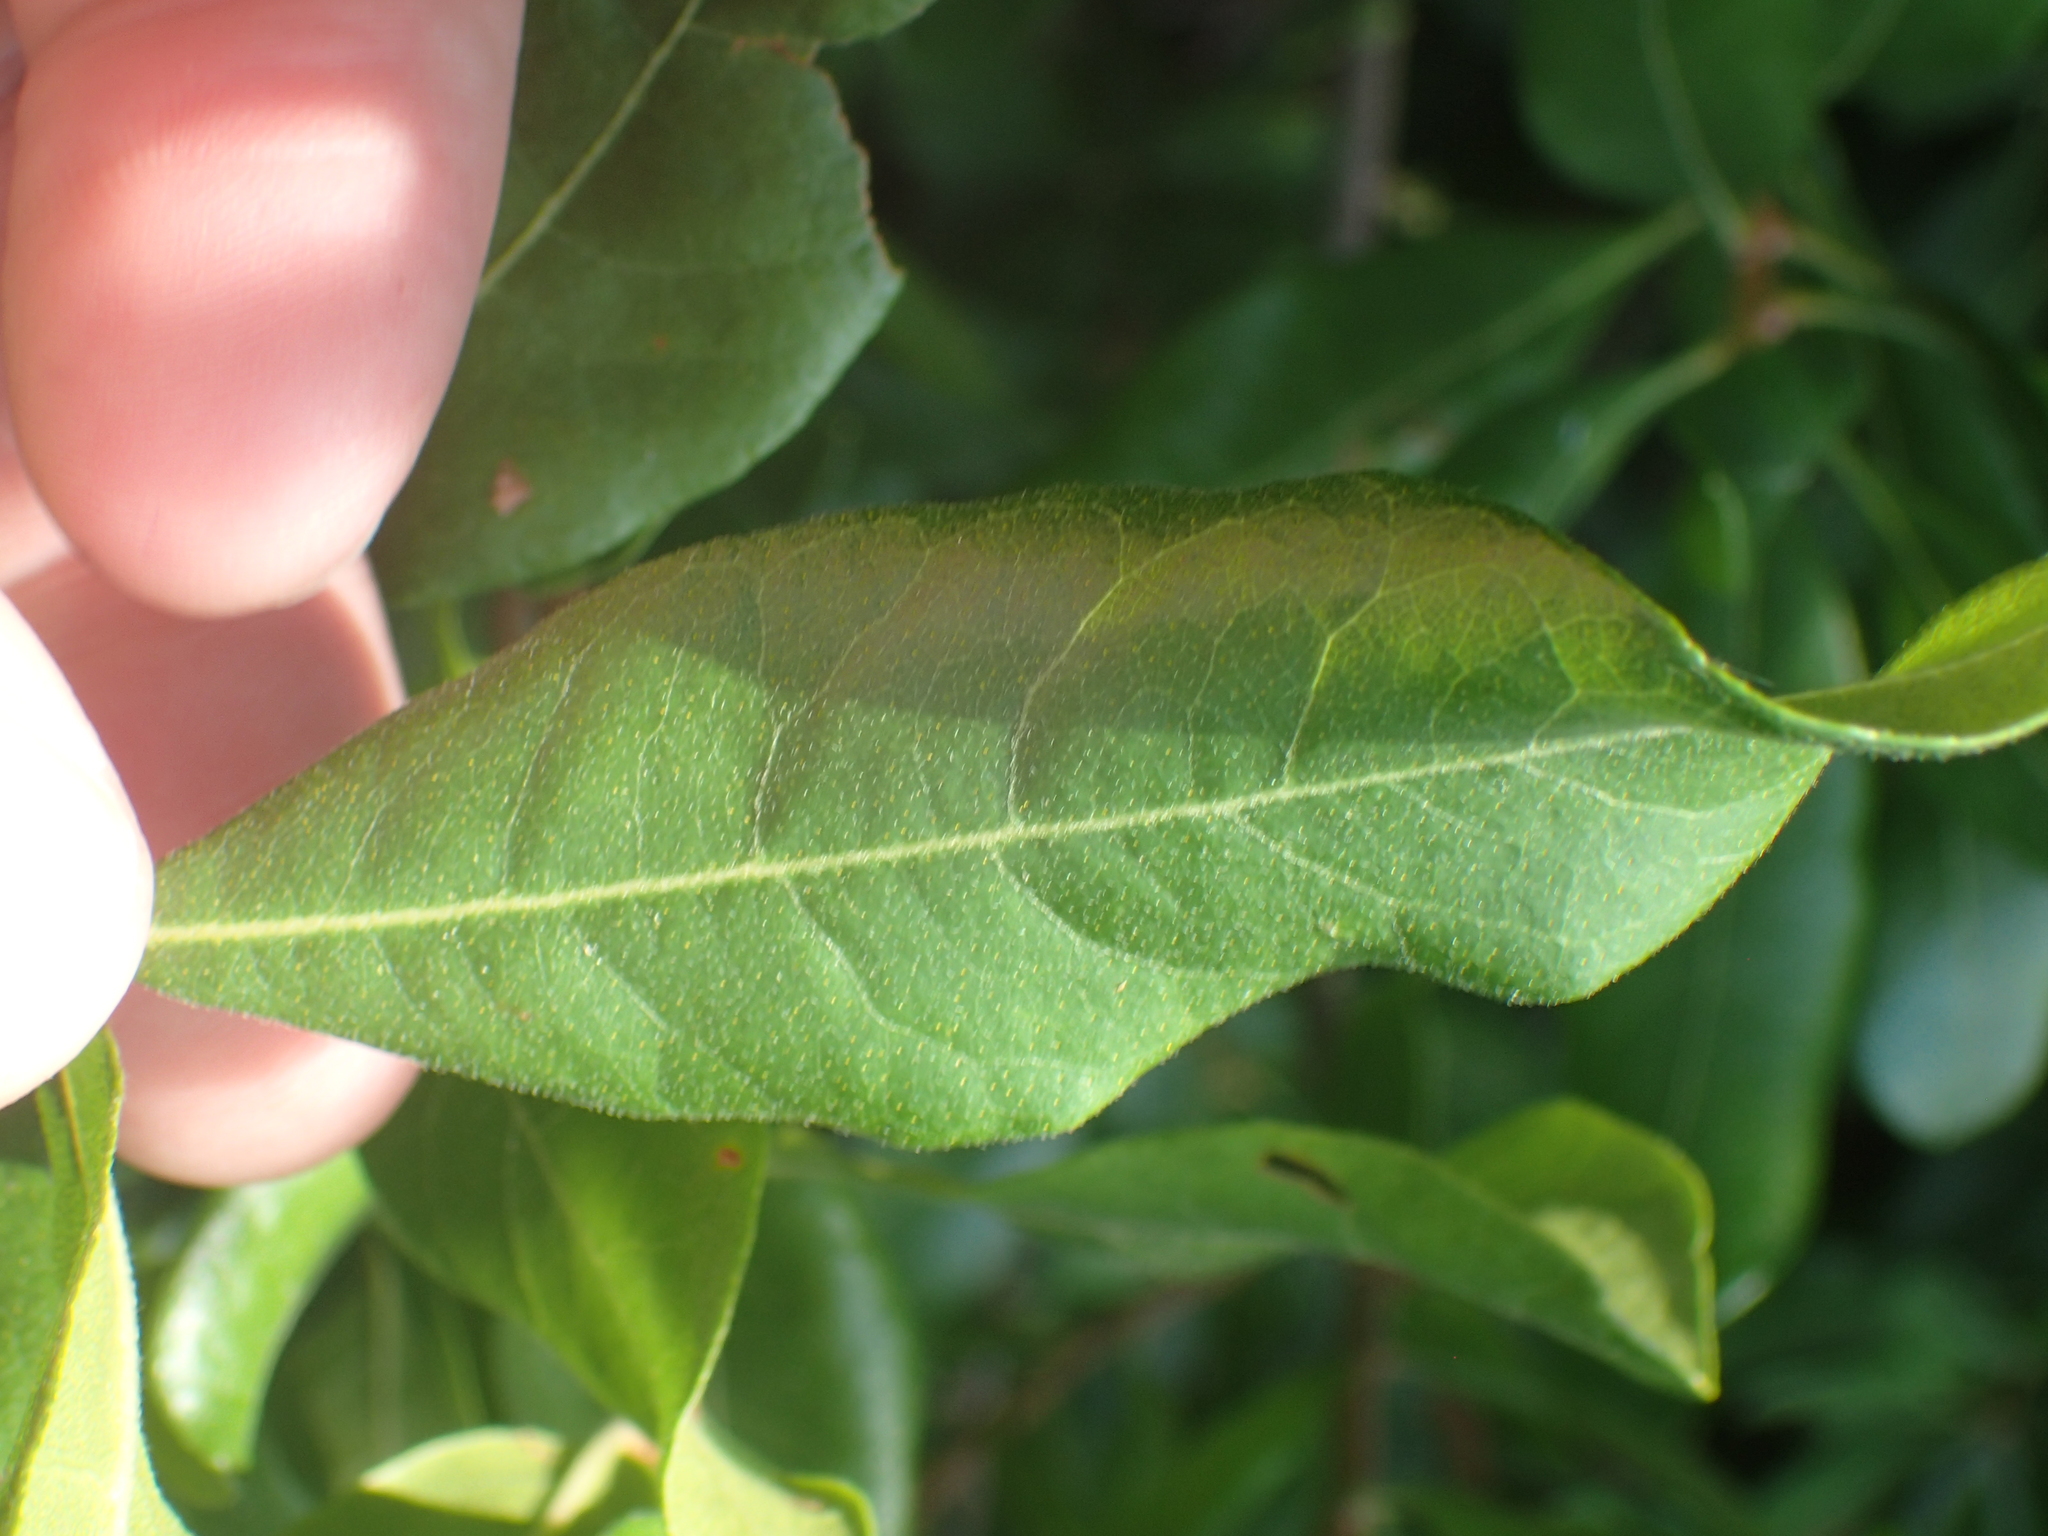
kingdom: Plantae
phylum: Tracheophyta
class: Magnoliopsida
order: Fagales
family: Myricaceae
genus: Morella
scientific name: Morella pensylvanica
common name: Northern bayberry
